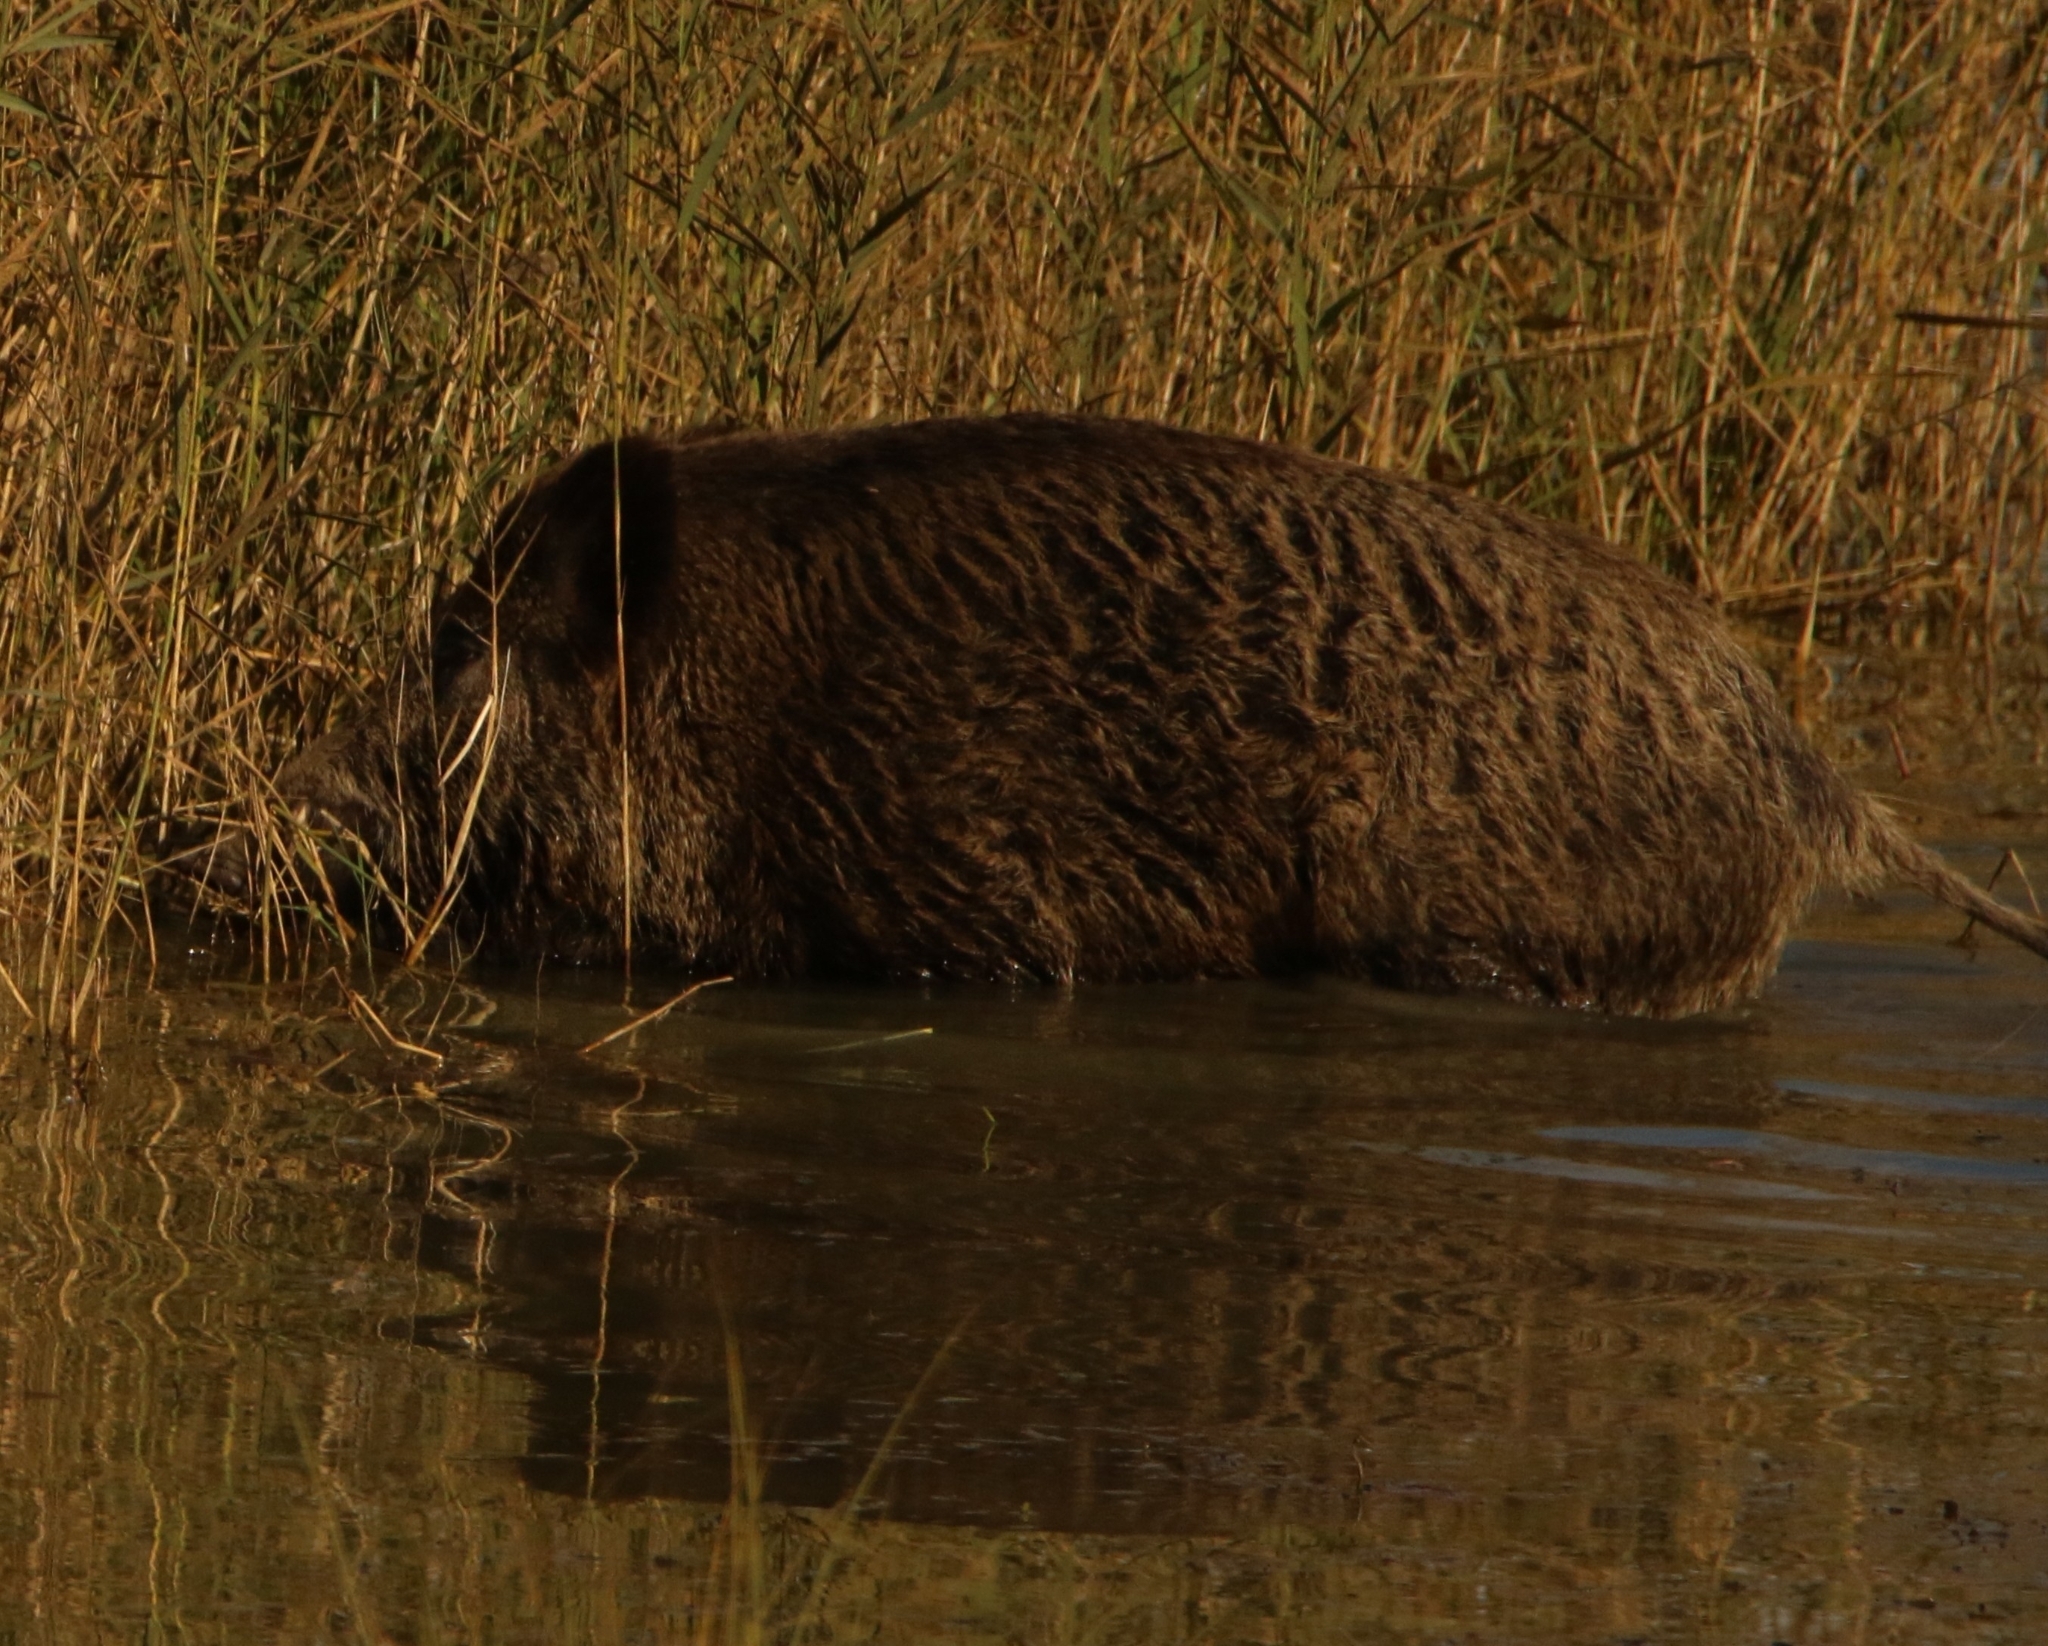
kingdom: Animalia
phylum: Chordata
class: Mammalia
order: Artiodactyla
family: Suidae
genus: Sus
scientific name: Sus scrofa
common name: Wild boar
